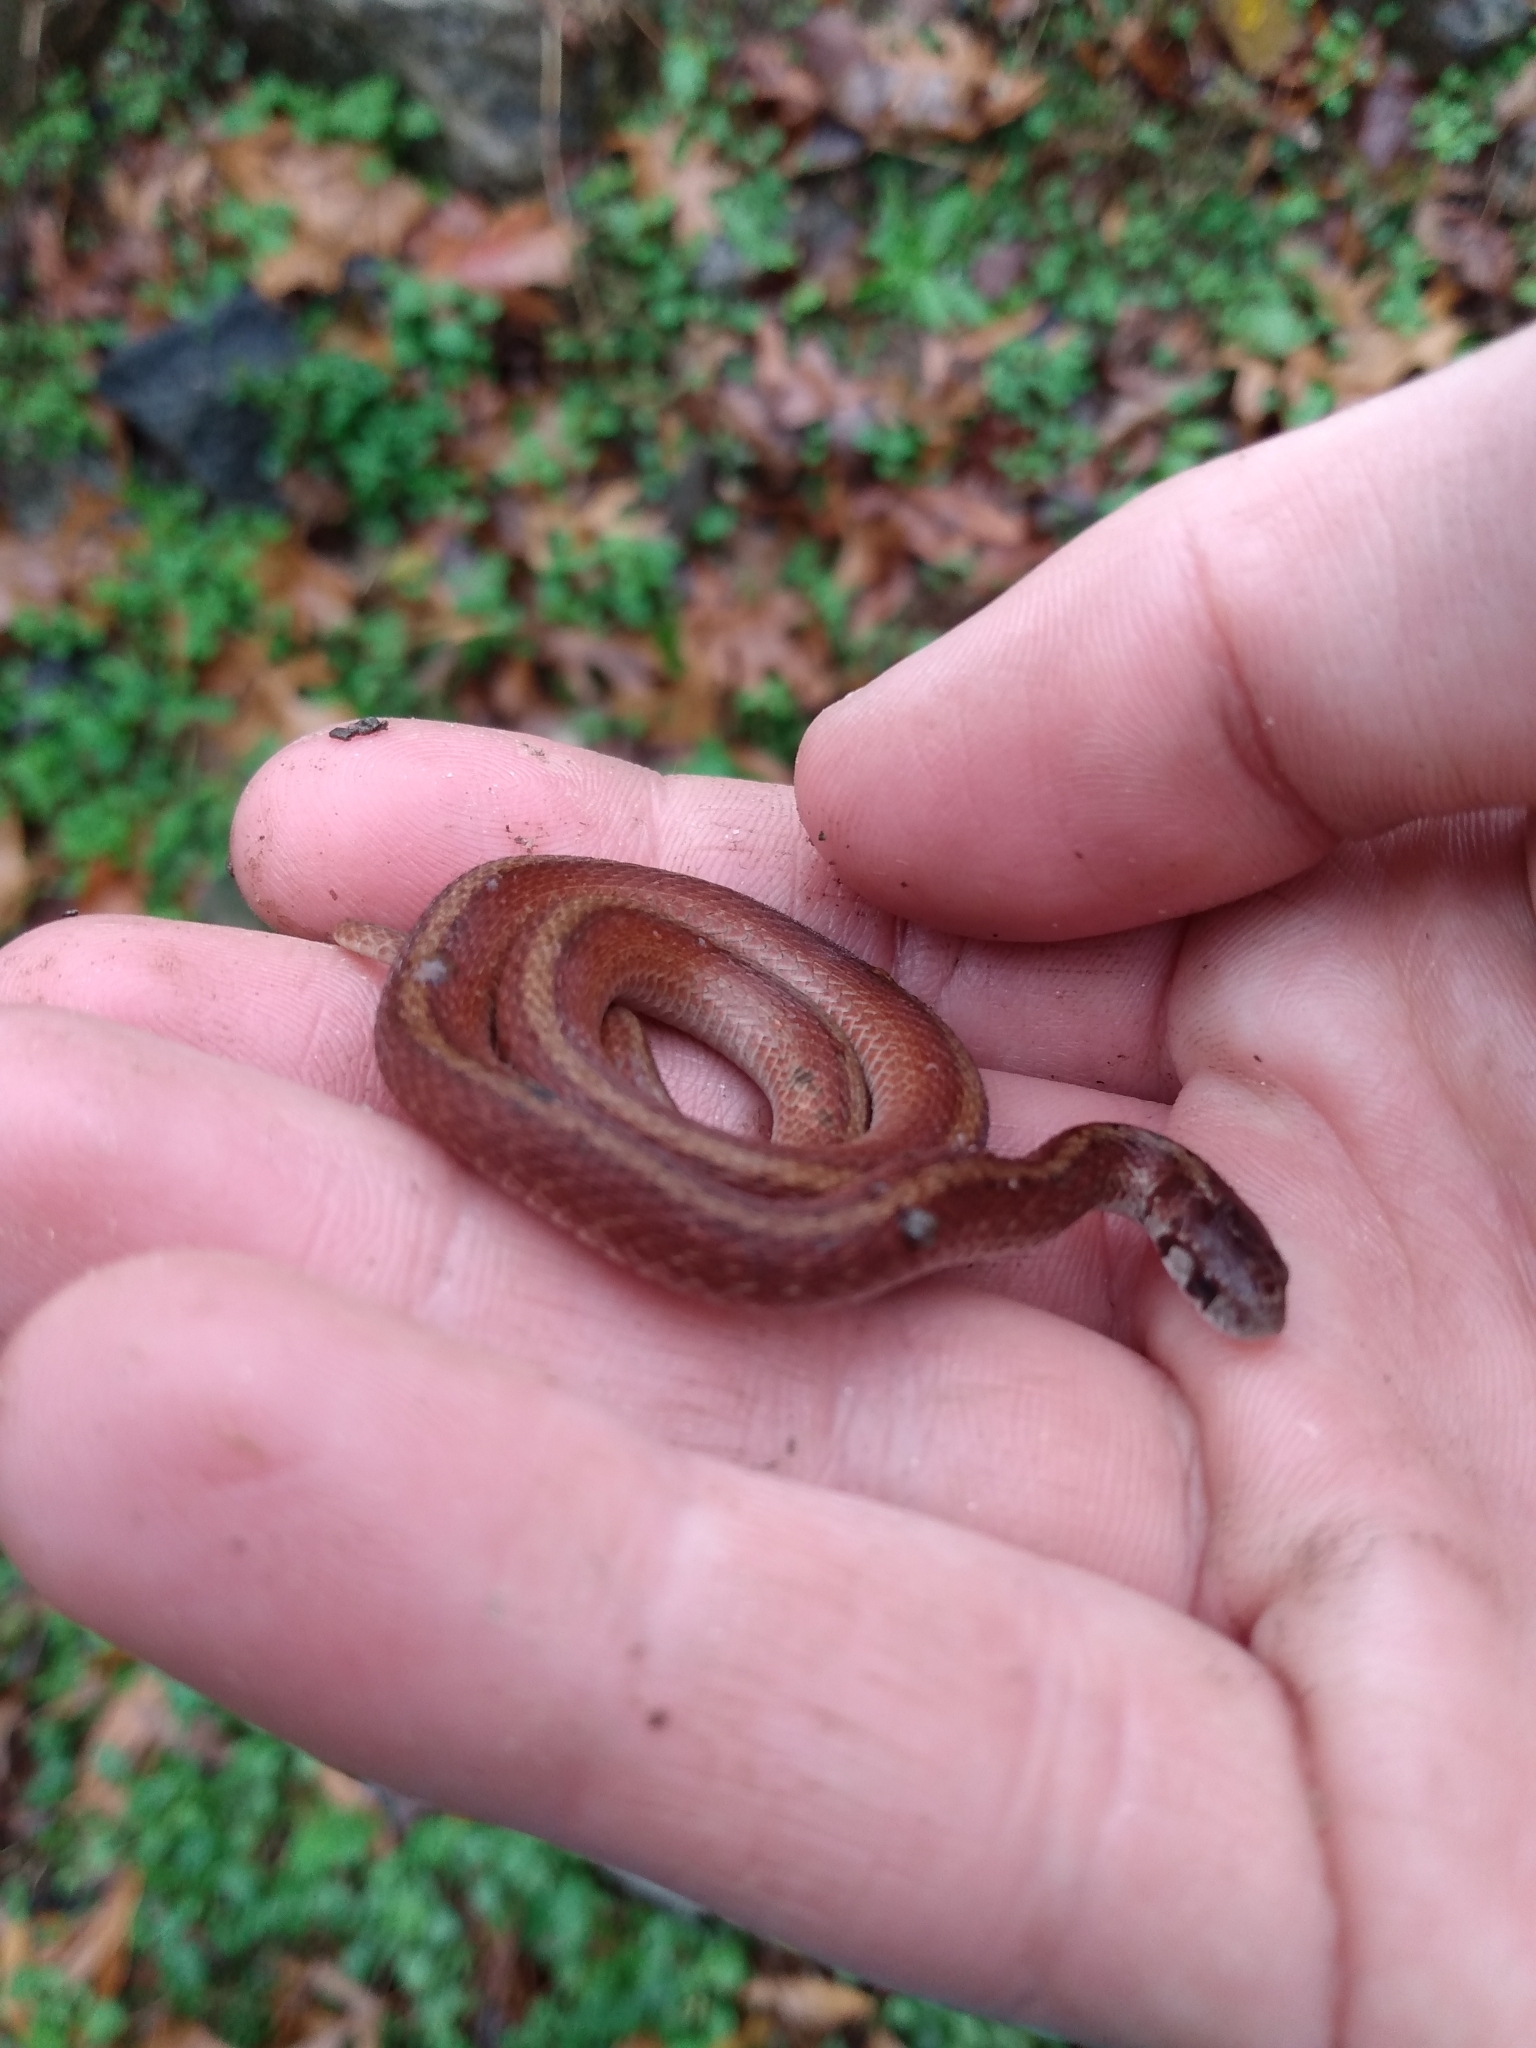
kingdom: Animalia
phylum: Chordata
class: Squamata
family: Colubridae
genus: Storeria
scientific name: Storeria dekayi
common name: (dekay’s) brown snake
